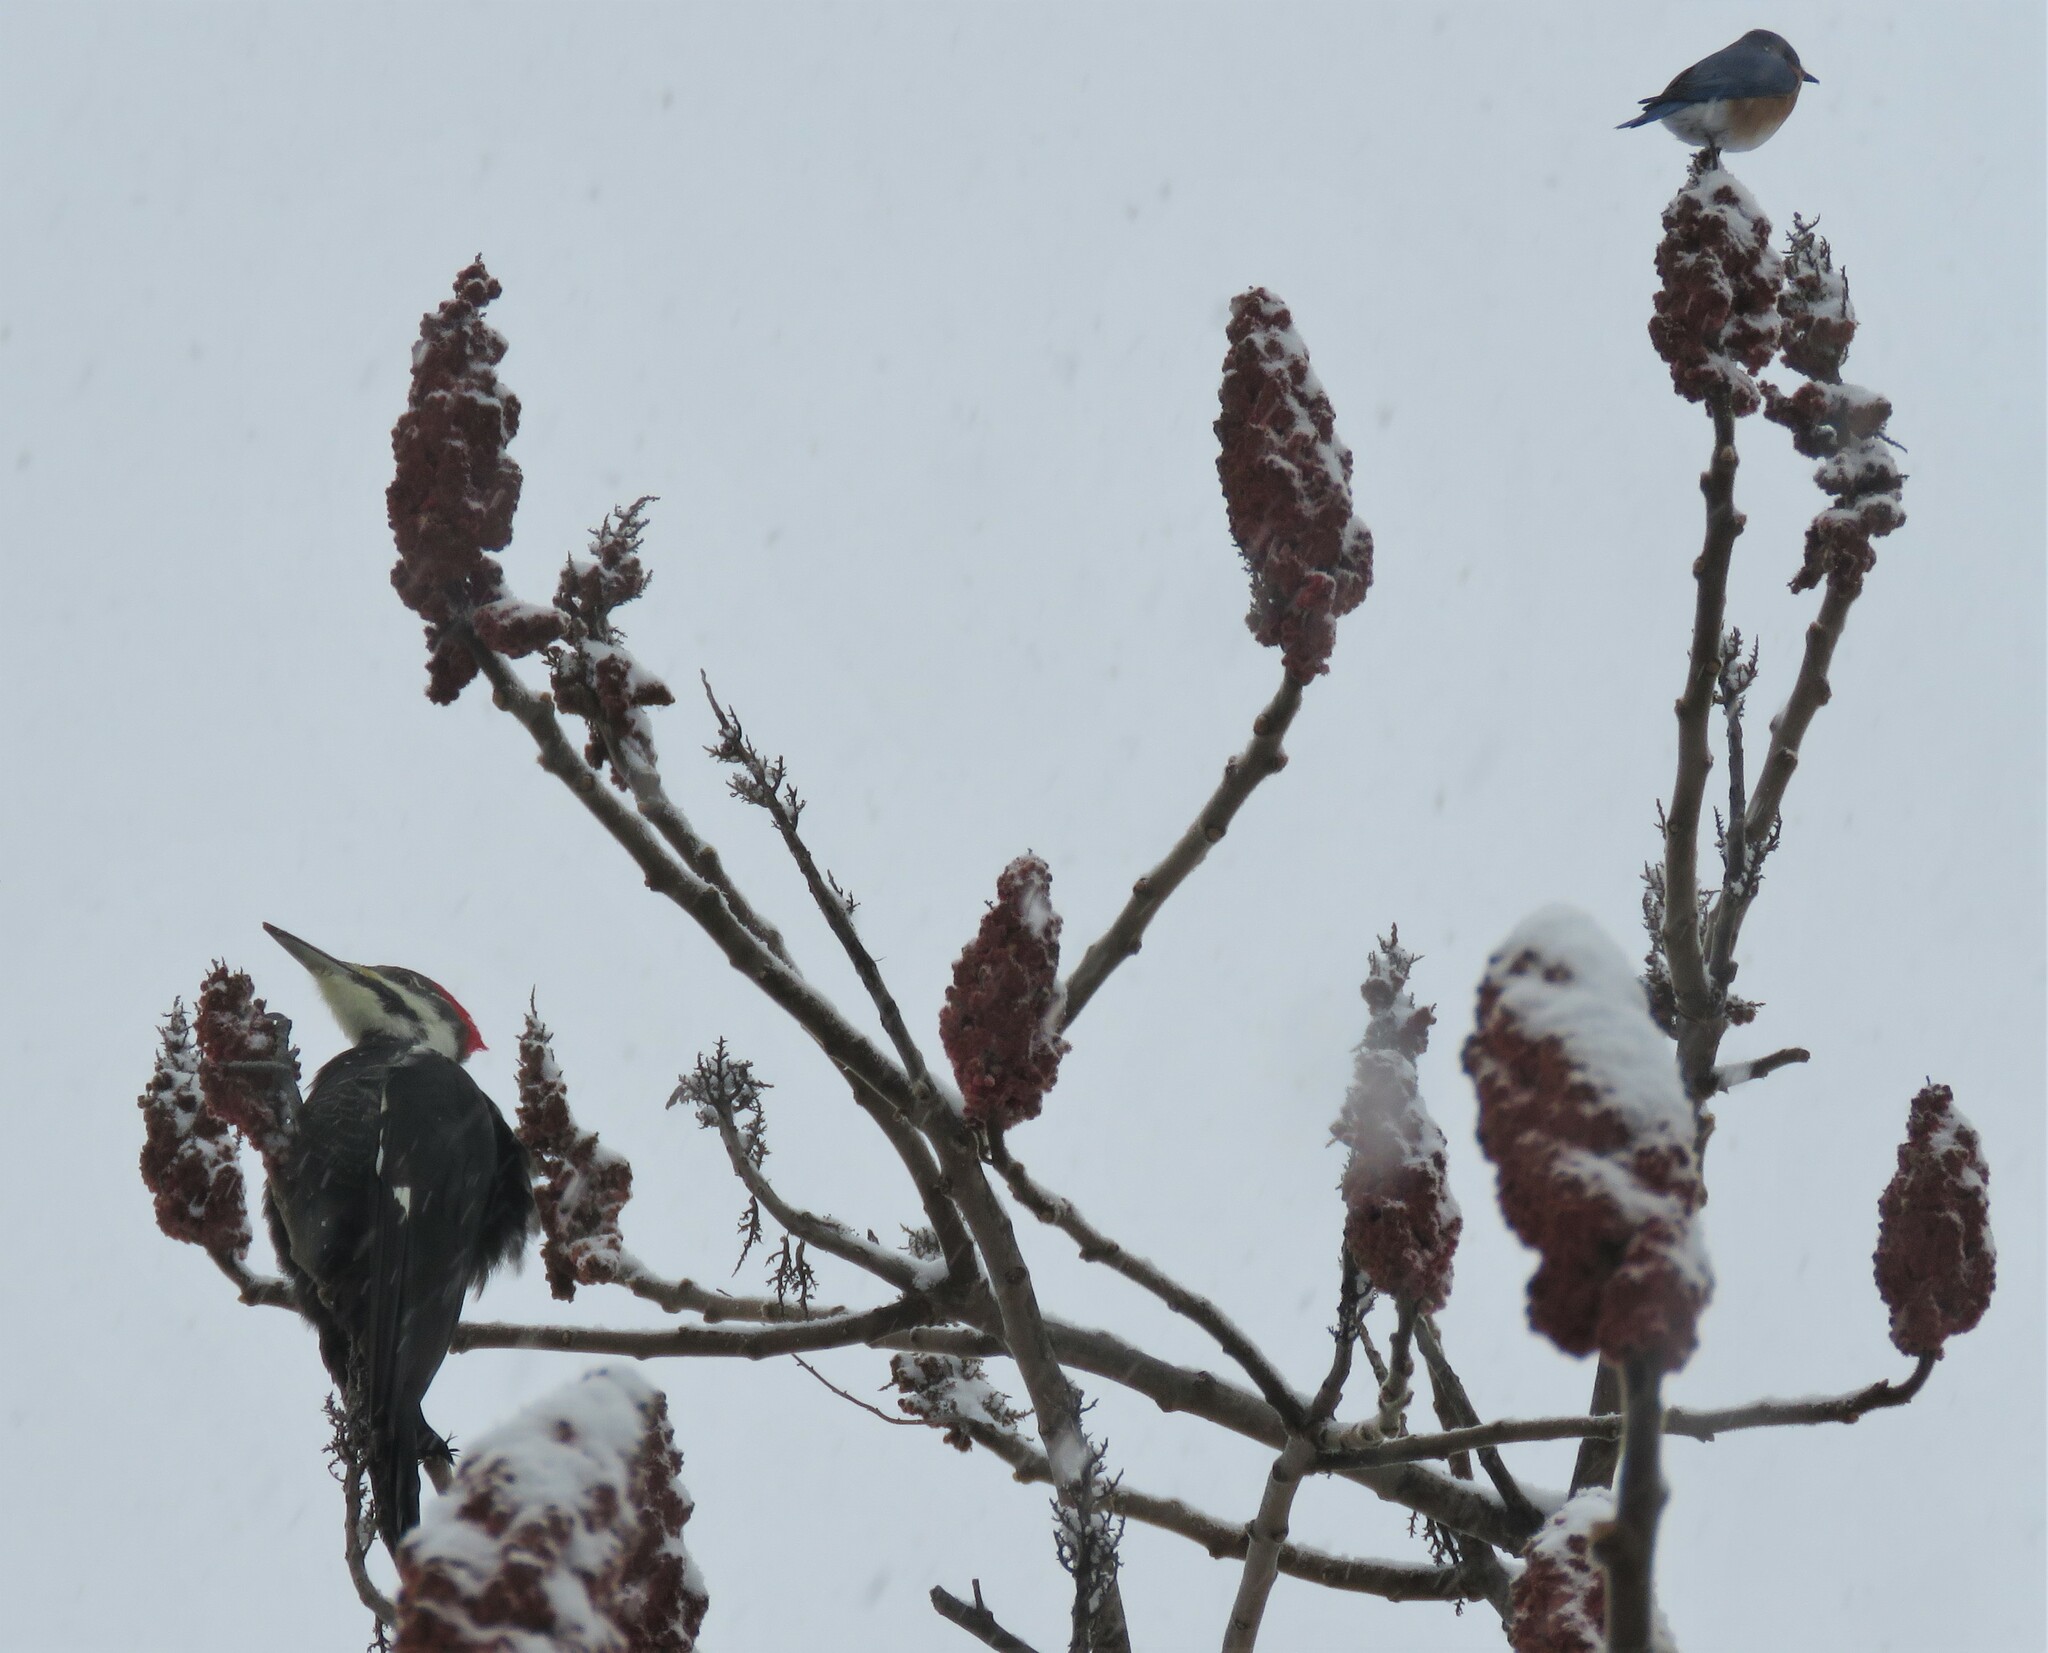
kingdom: Animalia
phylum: Chordata
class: Aves
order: Piciformes
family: Picidae
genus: Dryocopus
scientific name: Dryocopus pileatus
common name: Pileated woodpecker
